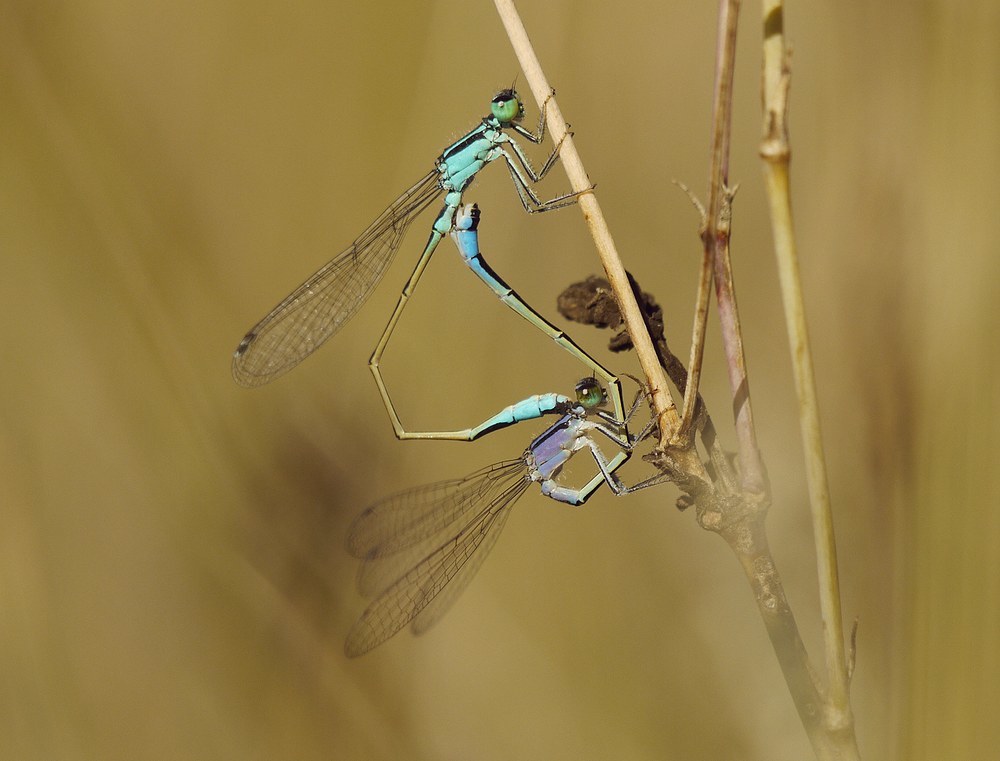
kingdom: Animalia
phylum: Arthropoda
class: Insecta
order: Odonata
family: Coenagrionidae
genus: Ischnura
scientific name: Ischnura elegans
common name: Blue-tailed damselfly
